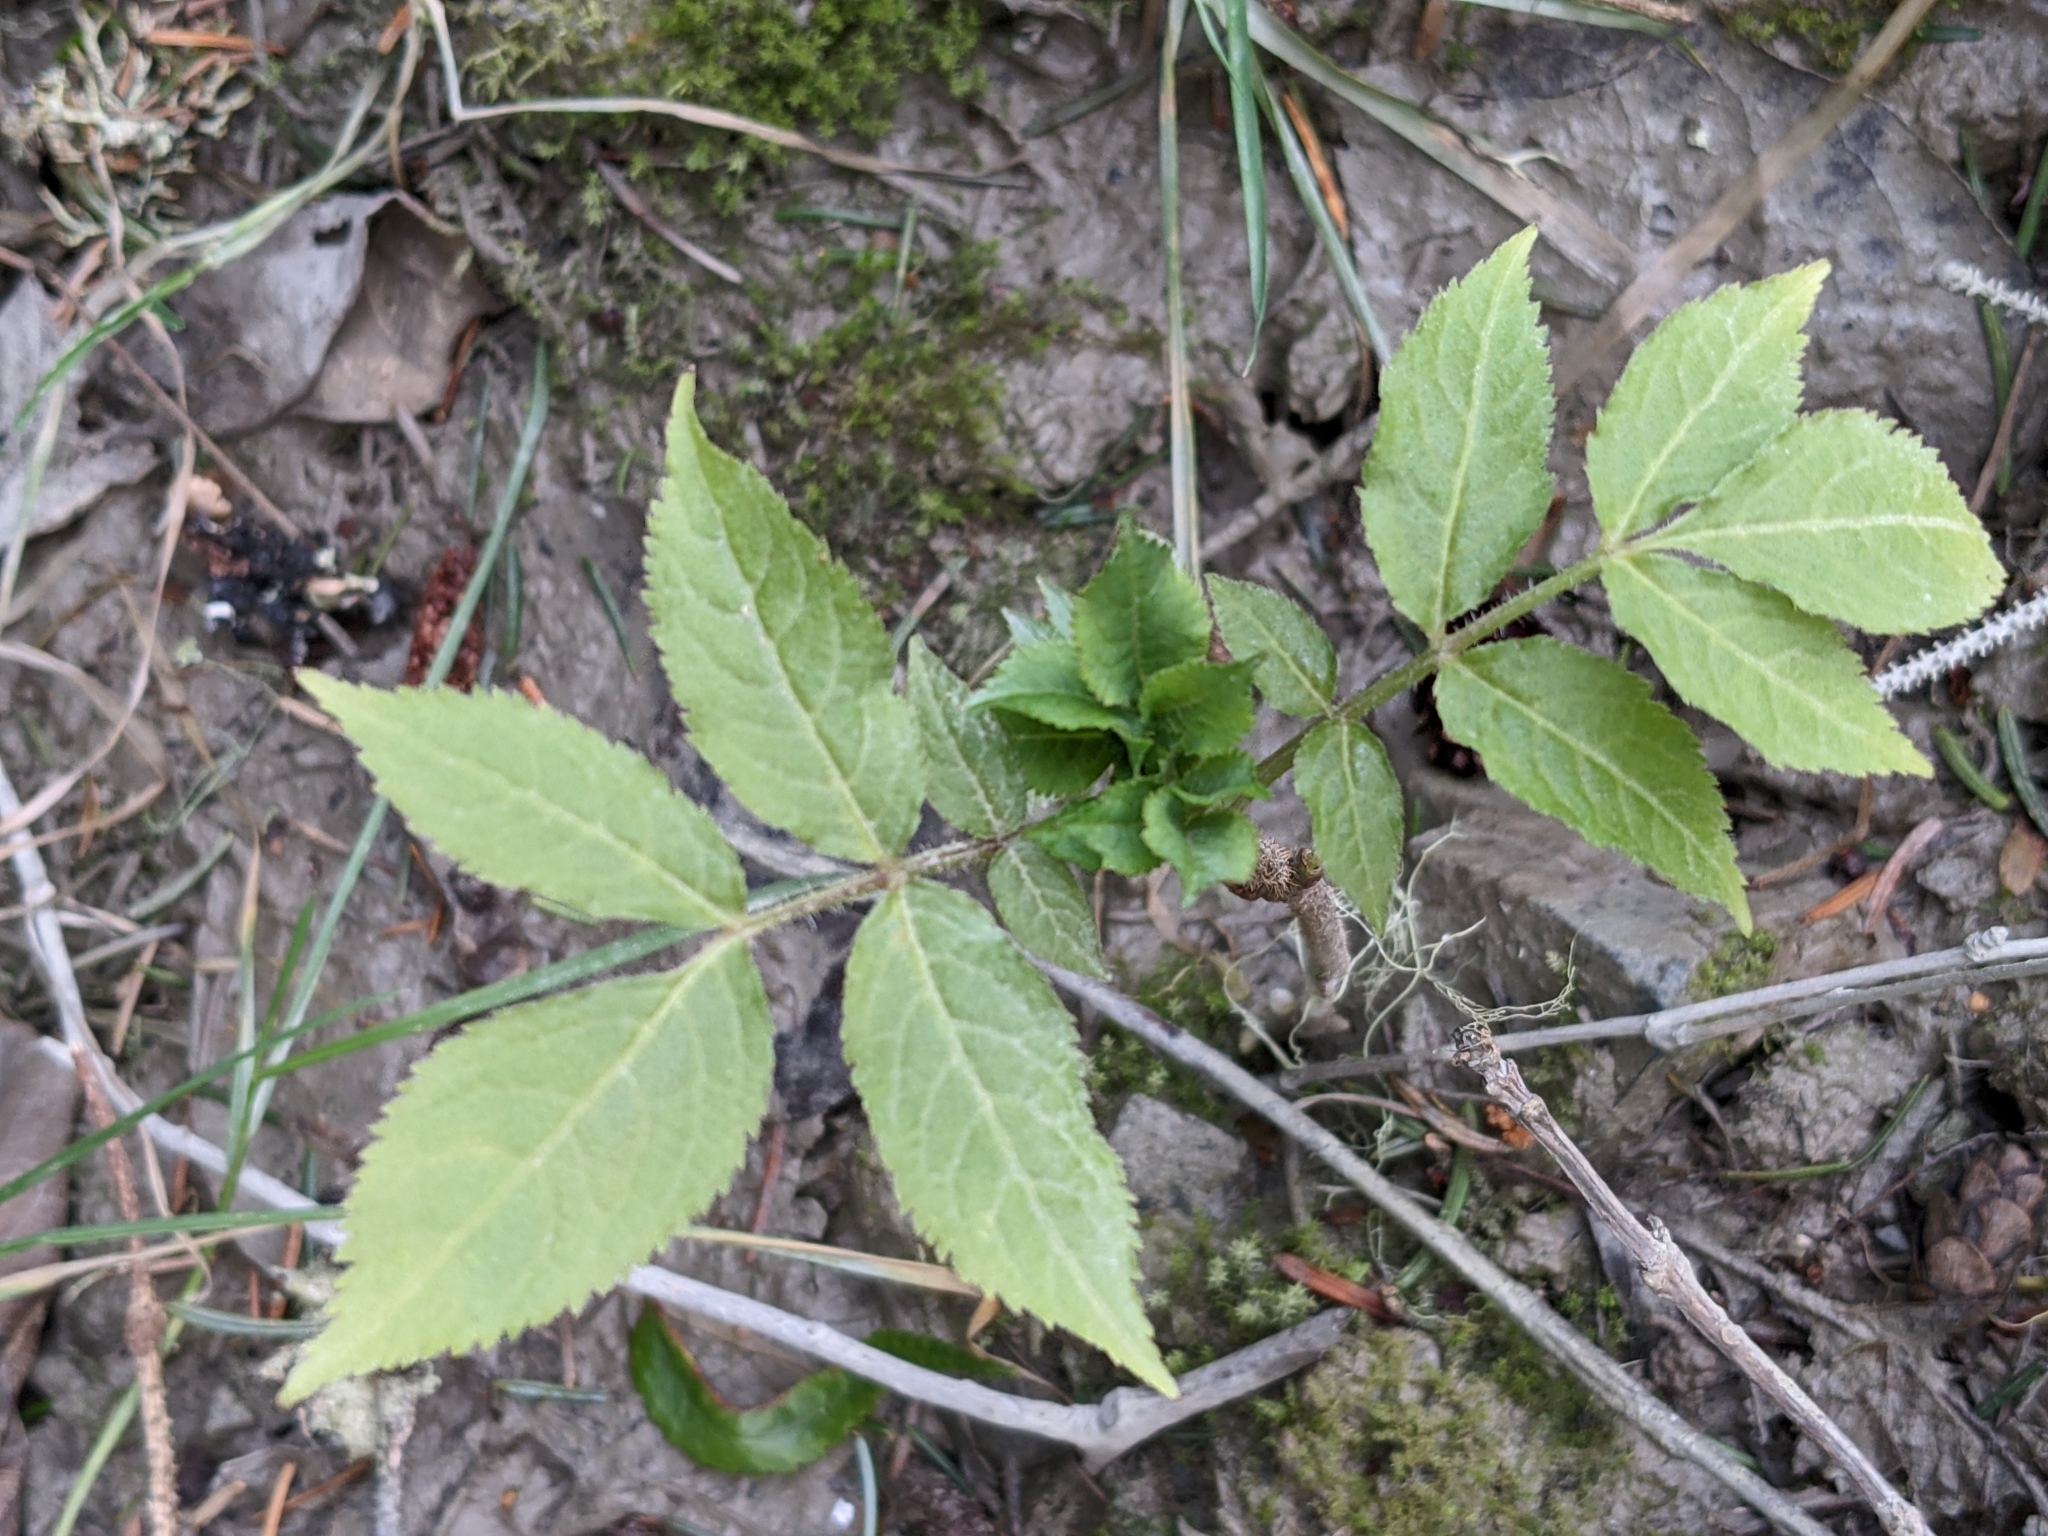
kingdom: Plantae
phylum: Tracheophyta
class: Magnoliopsida
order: Dipsacales
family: Viburnaceae
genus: Sambucus
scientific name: Sambucus racemosa
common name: Red-berried elder
